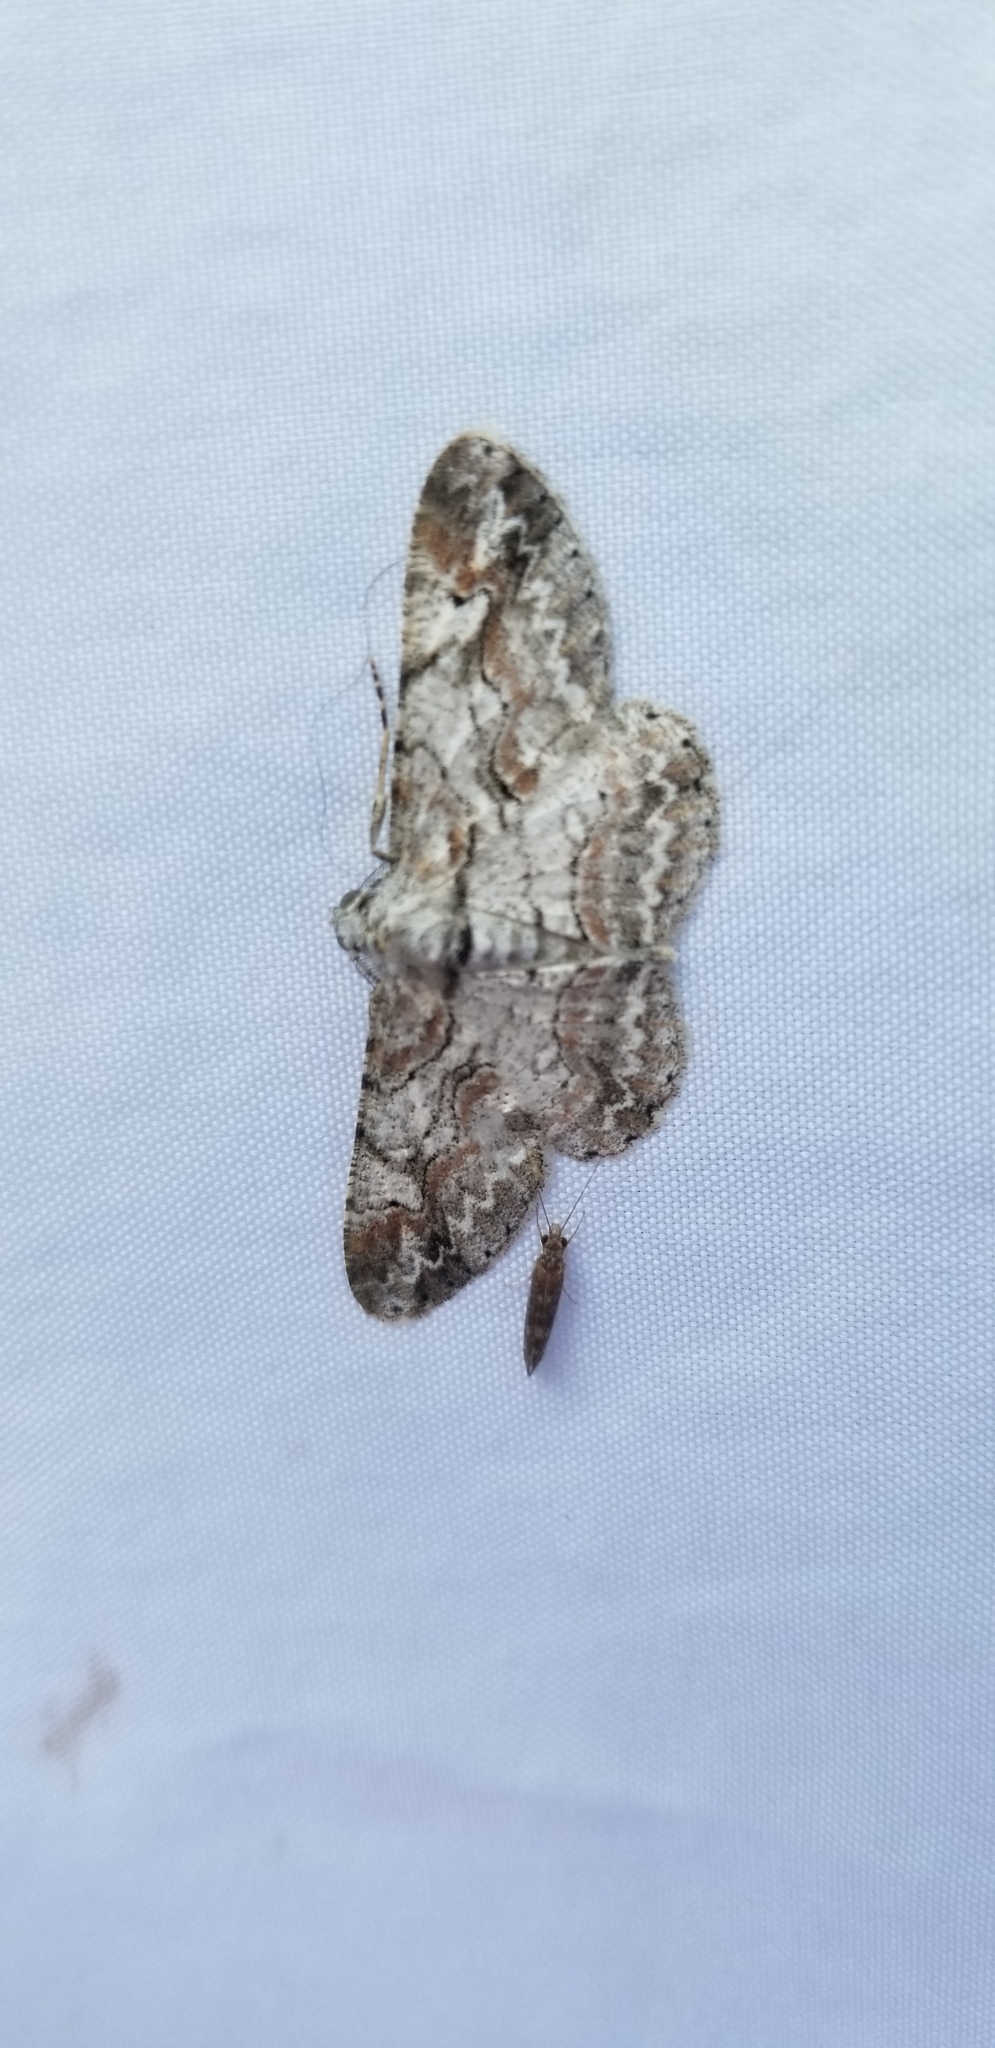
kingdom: Animalia
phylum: Arthropoda
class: Insecta
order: Lepidoptera
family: Geometridae
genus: Iridopsis
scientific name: Iridopsis defectaria
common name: Brown-shaded gray
